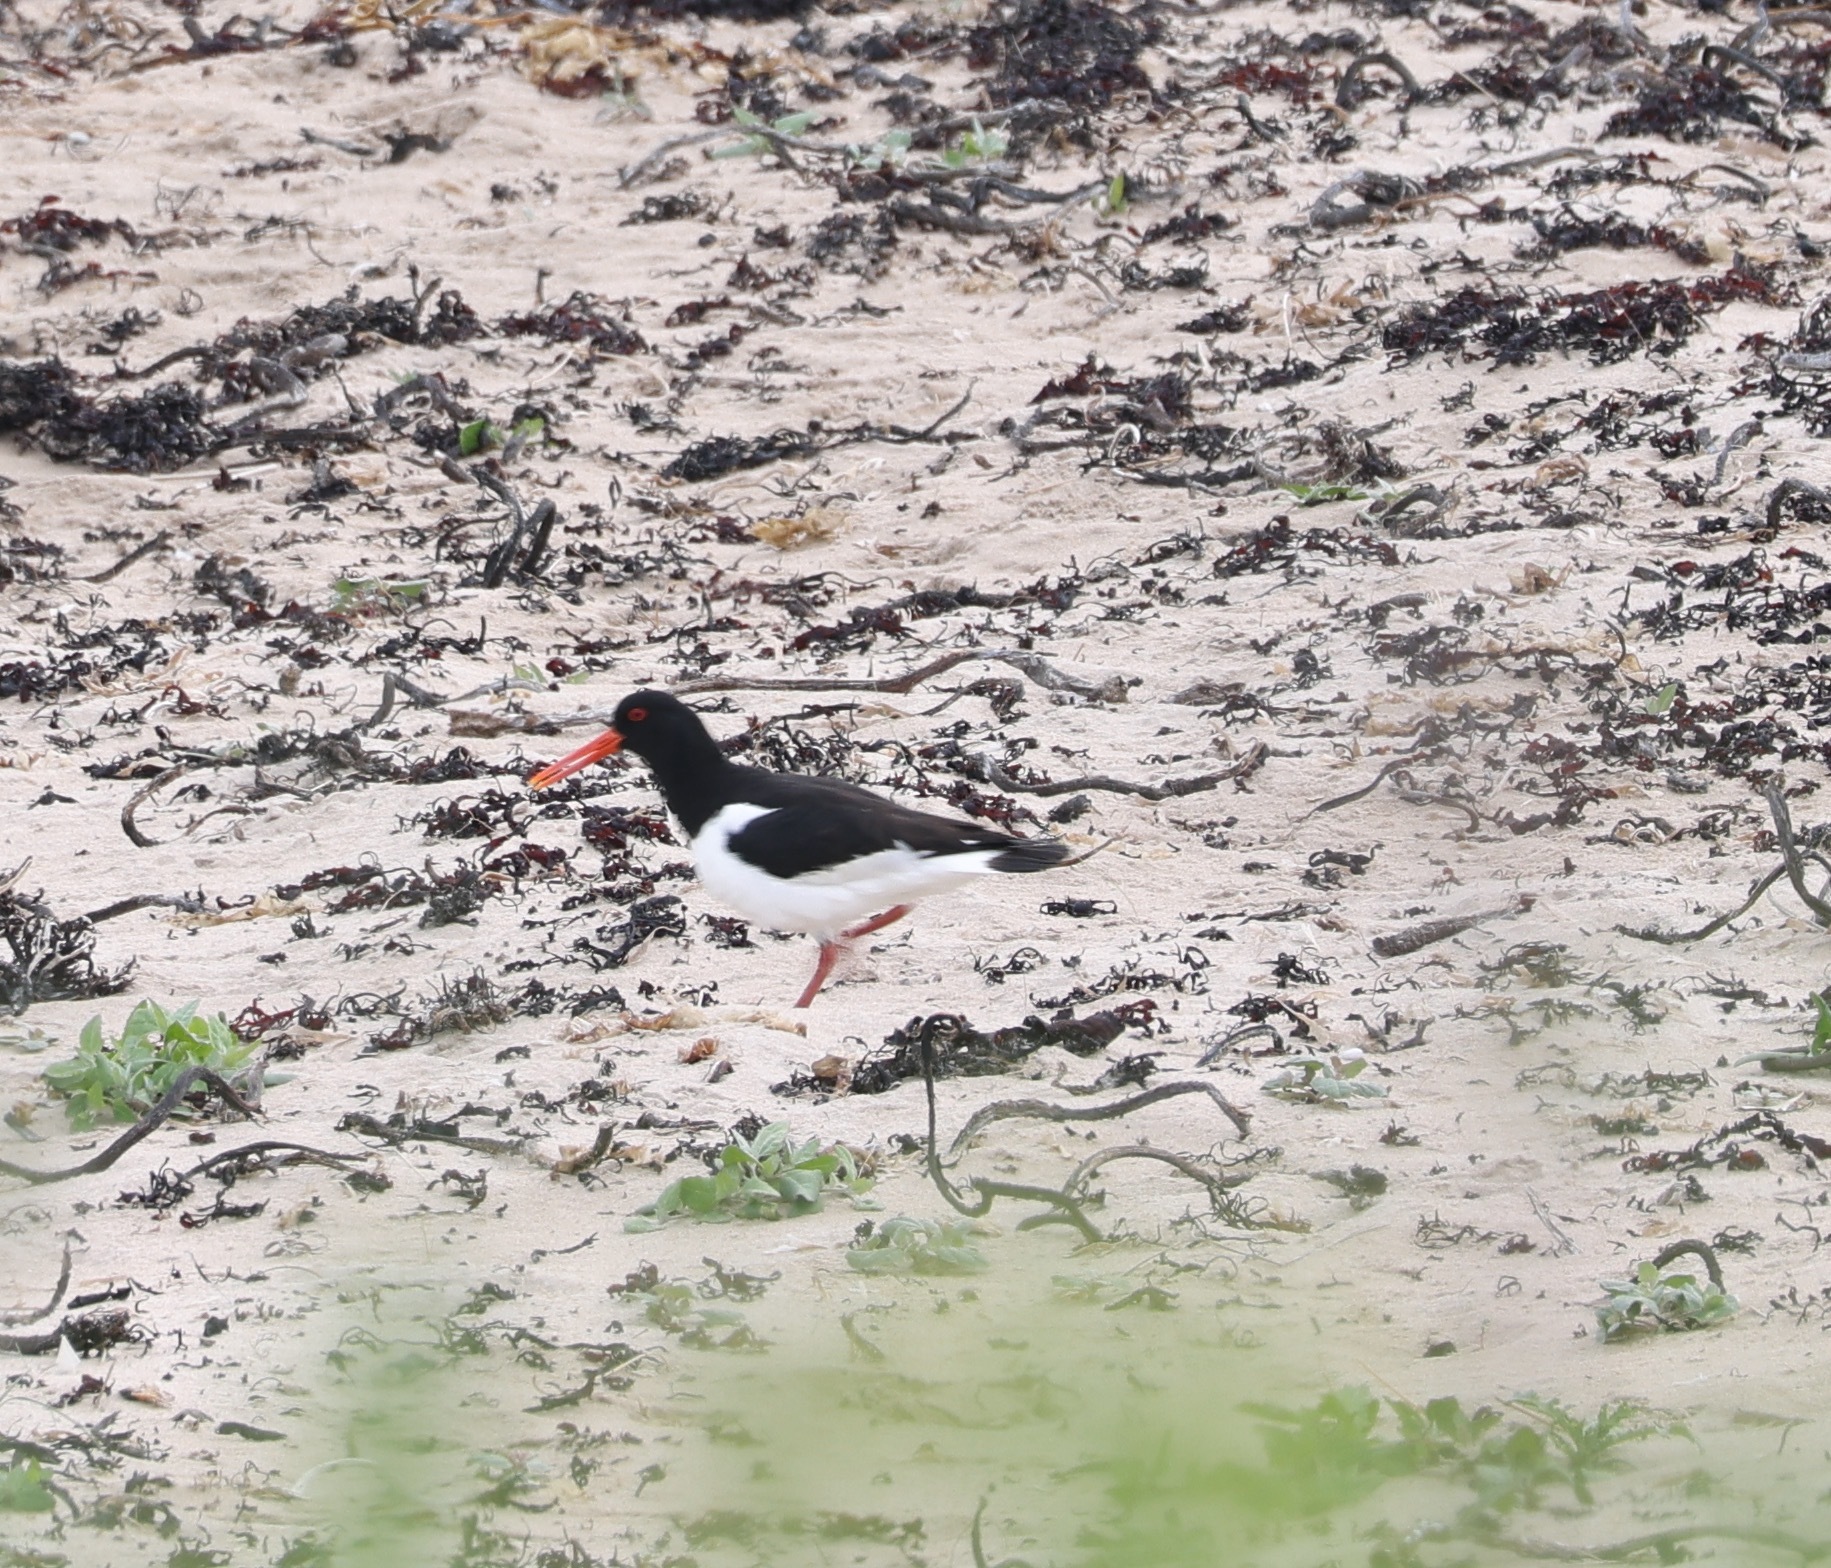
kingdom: Animalia
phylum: Chordata
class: Aves
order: Charadriiformes
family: Haematopodidae
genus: Haematopus
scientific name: Haematopus ostralegus
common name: Eurasian oystercatcher
